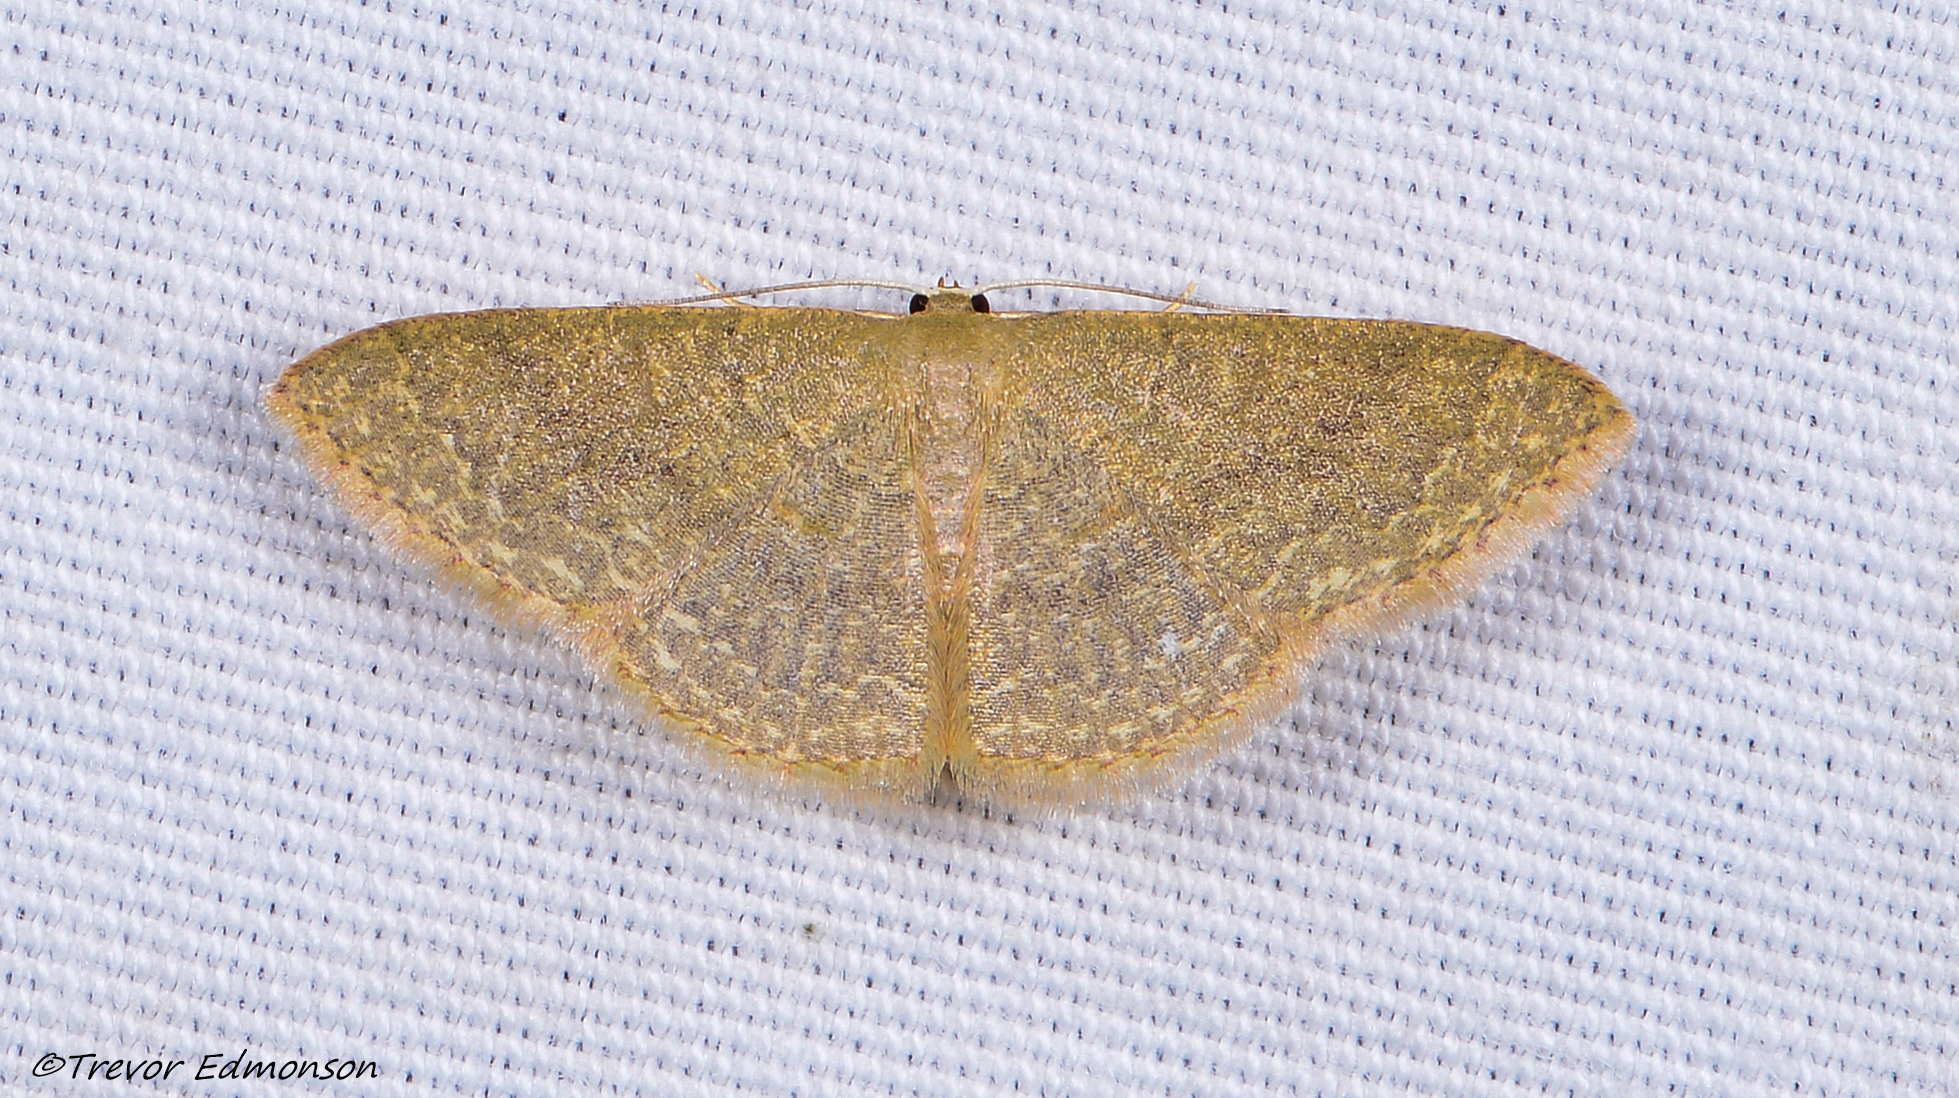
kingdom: Animalia
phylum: Arthropoda
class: Insecta
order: Lepidoptera
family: Geometridae
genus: Pleuroprucha
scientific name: Pleuroprucha insulsaria
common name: Common tan wave
